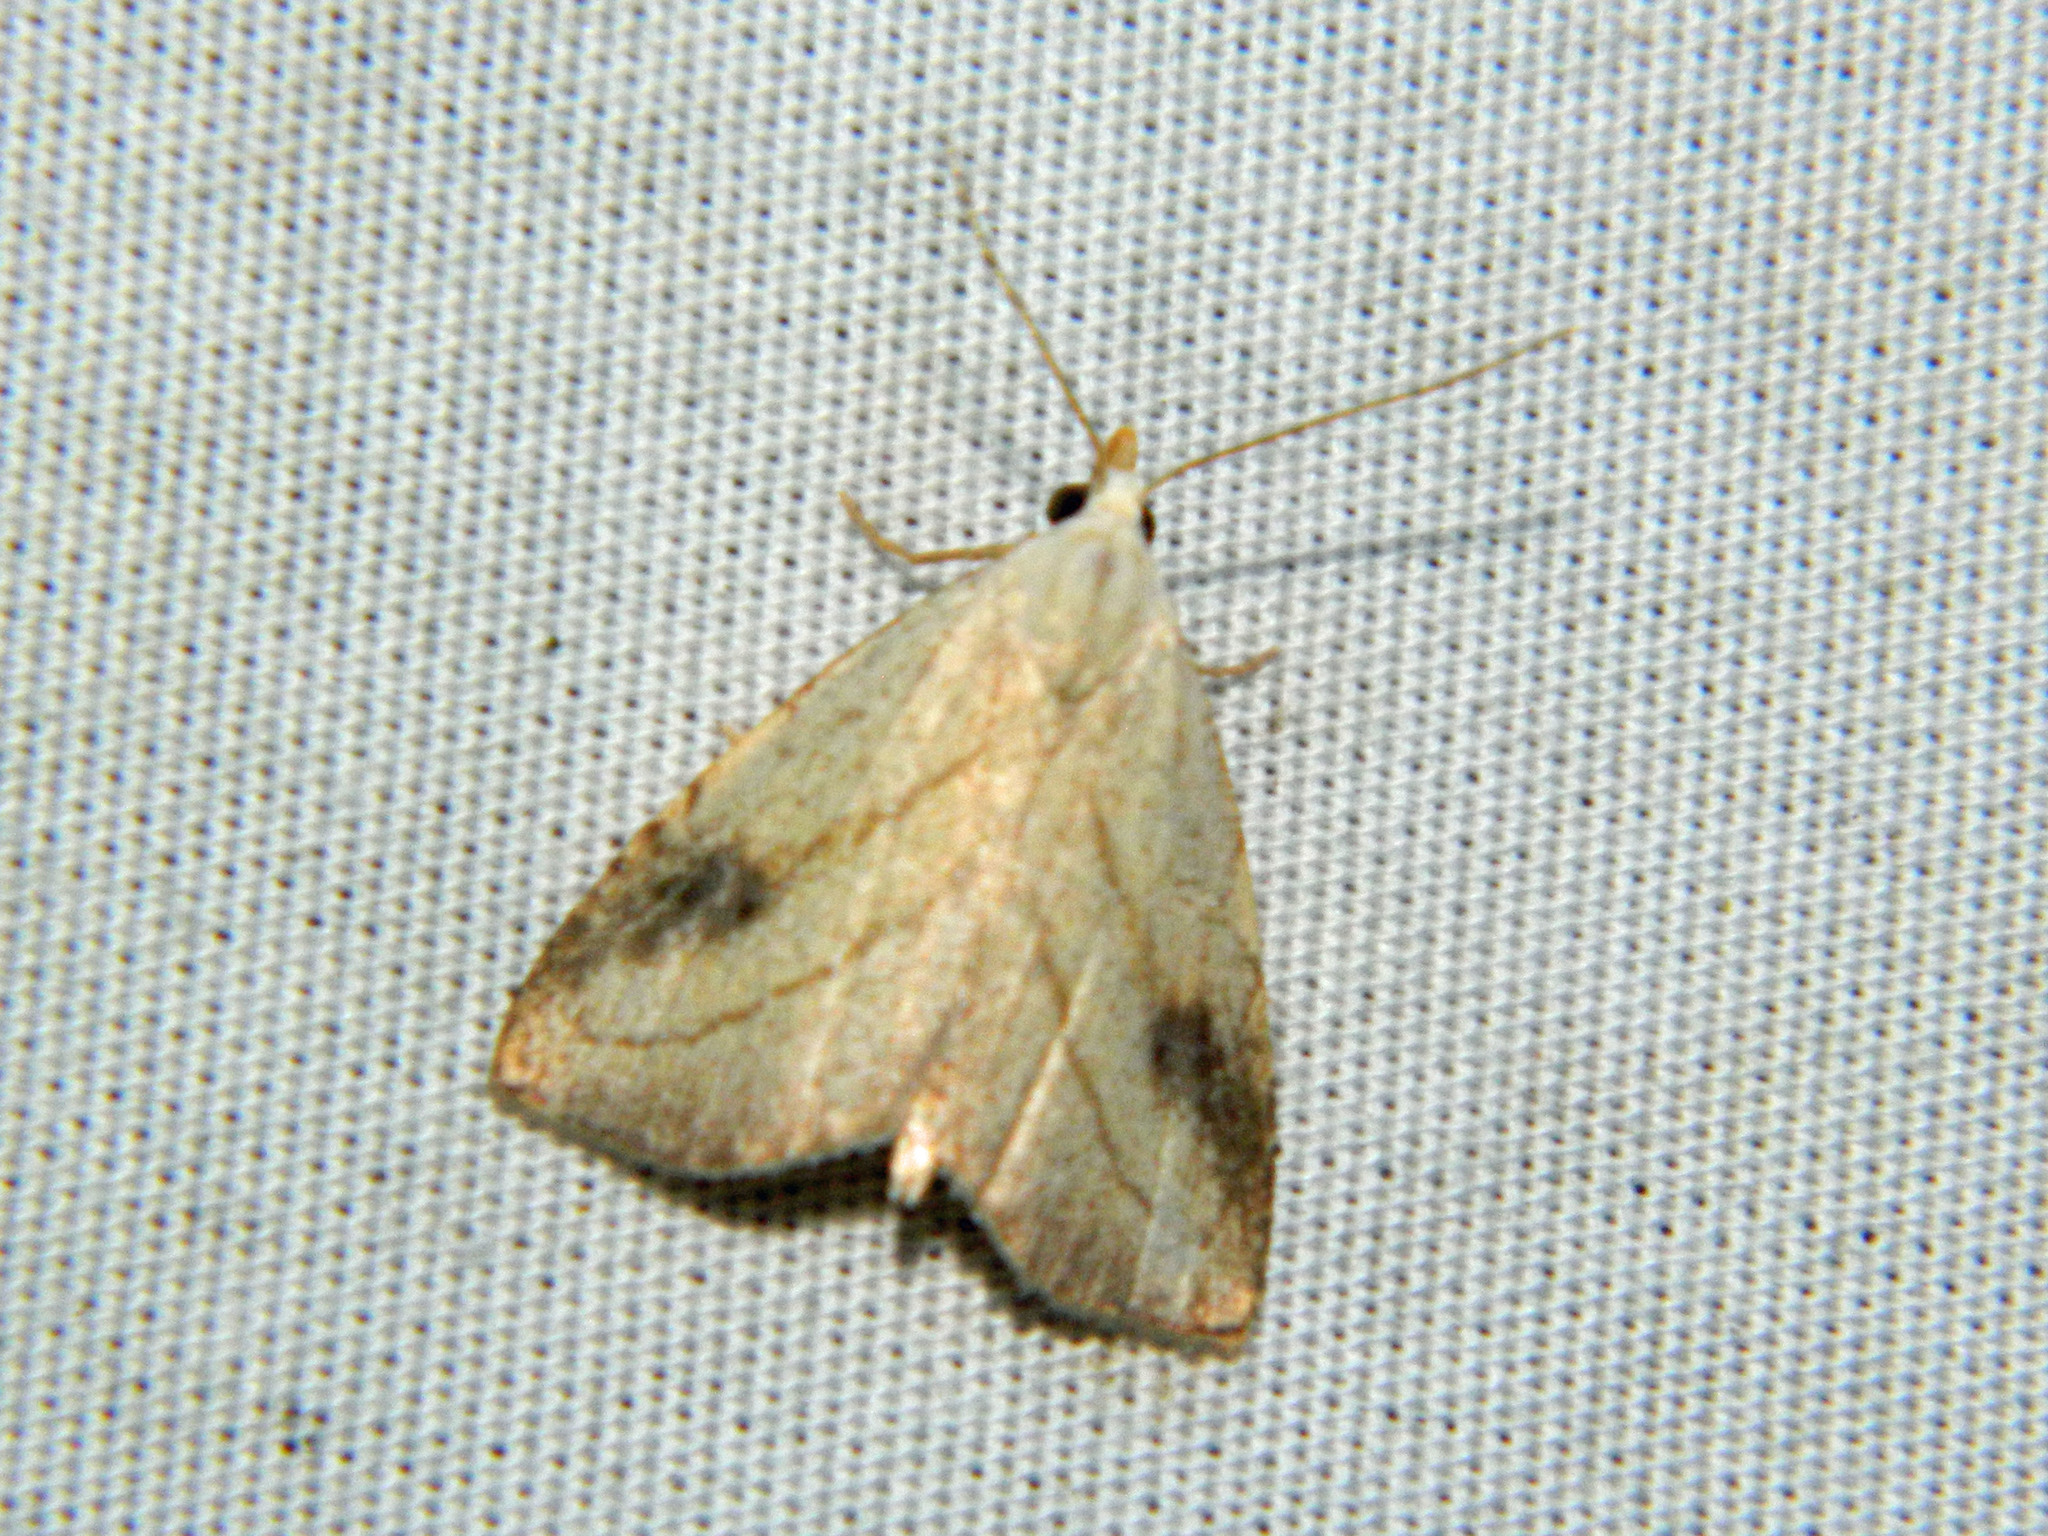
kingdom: Animalia
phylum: Arthropoda
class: Insecta
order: Lepidoptera
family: Erebidae
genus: Rivula
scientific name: Rivula propinqualis
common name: Spotted grass moth
